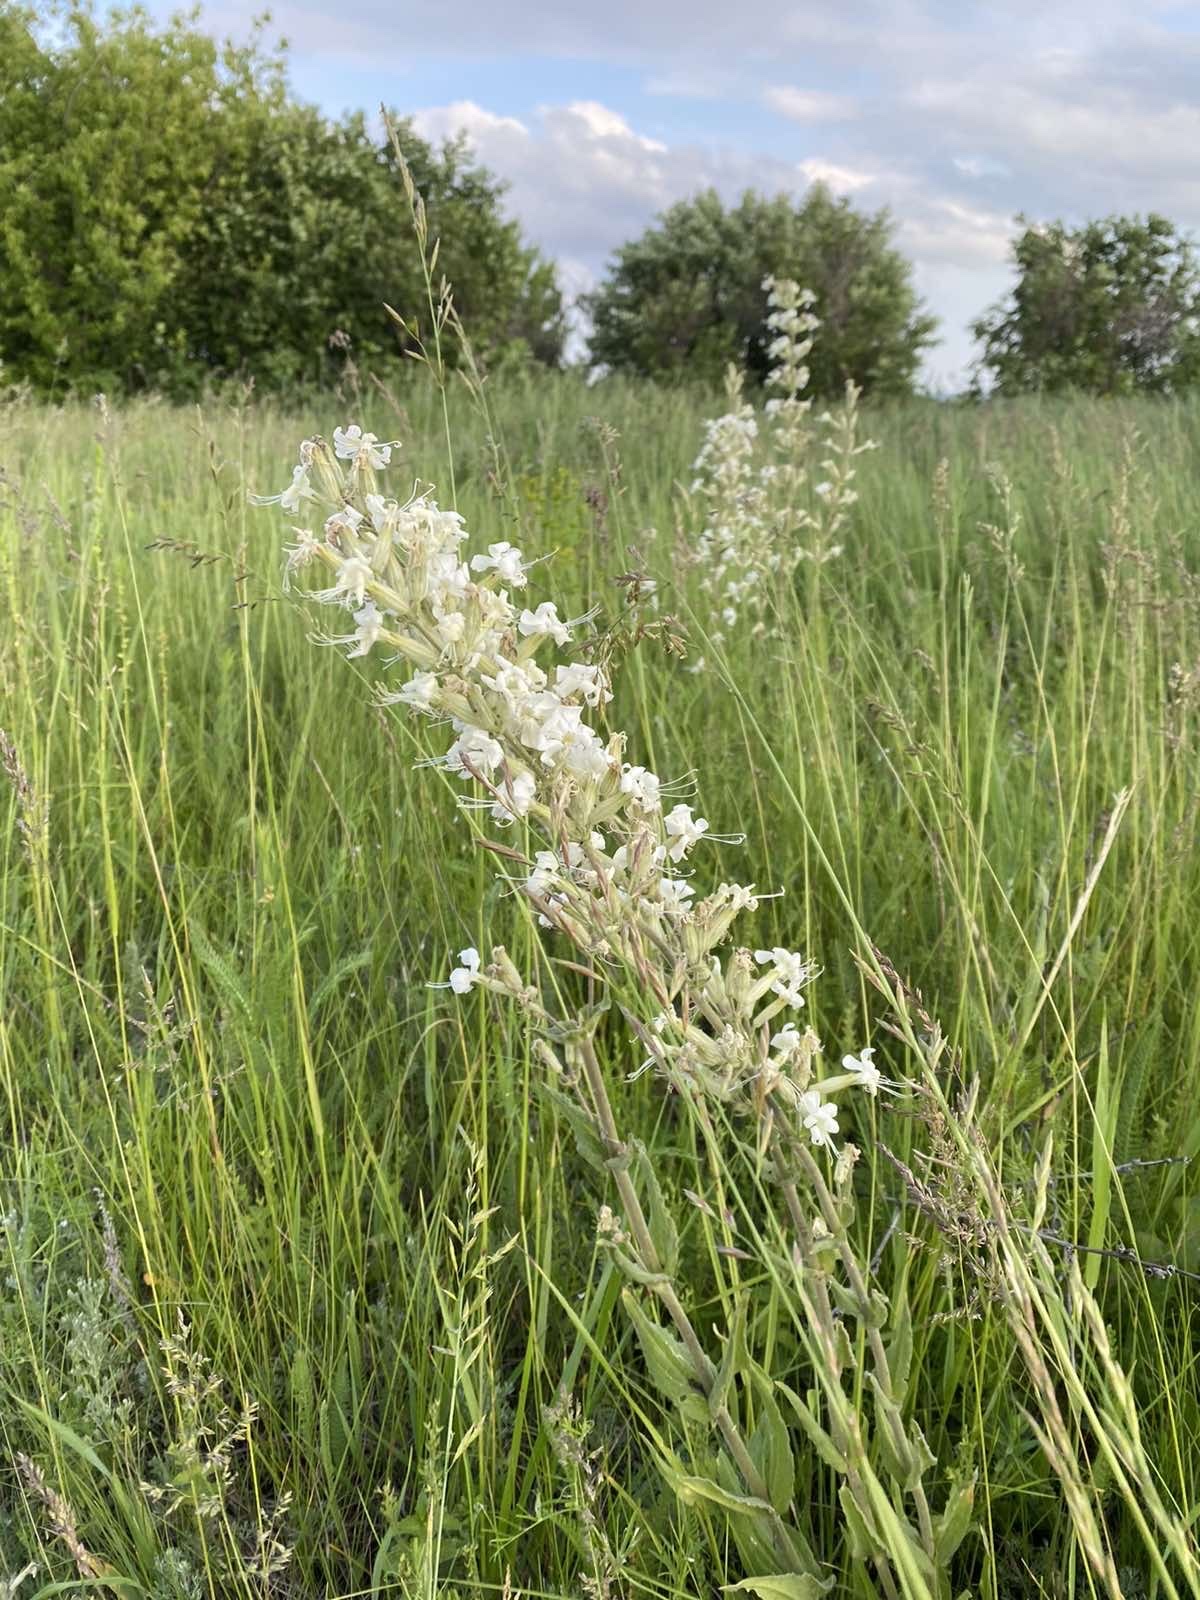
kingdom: Plantae
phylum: Tracheophyta
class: Magnoliopsida
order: Caryophyllales
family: Caryophyllaceae
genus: Silene
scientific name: Silene viscosa
